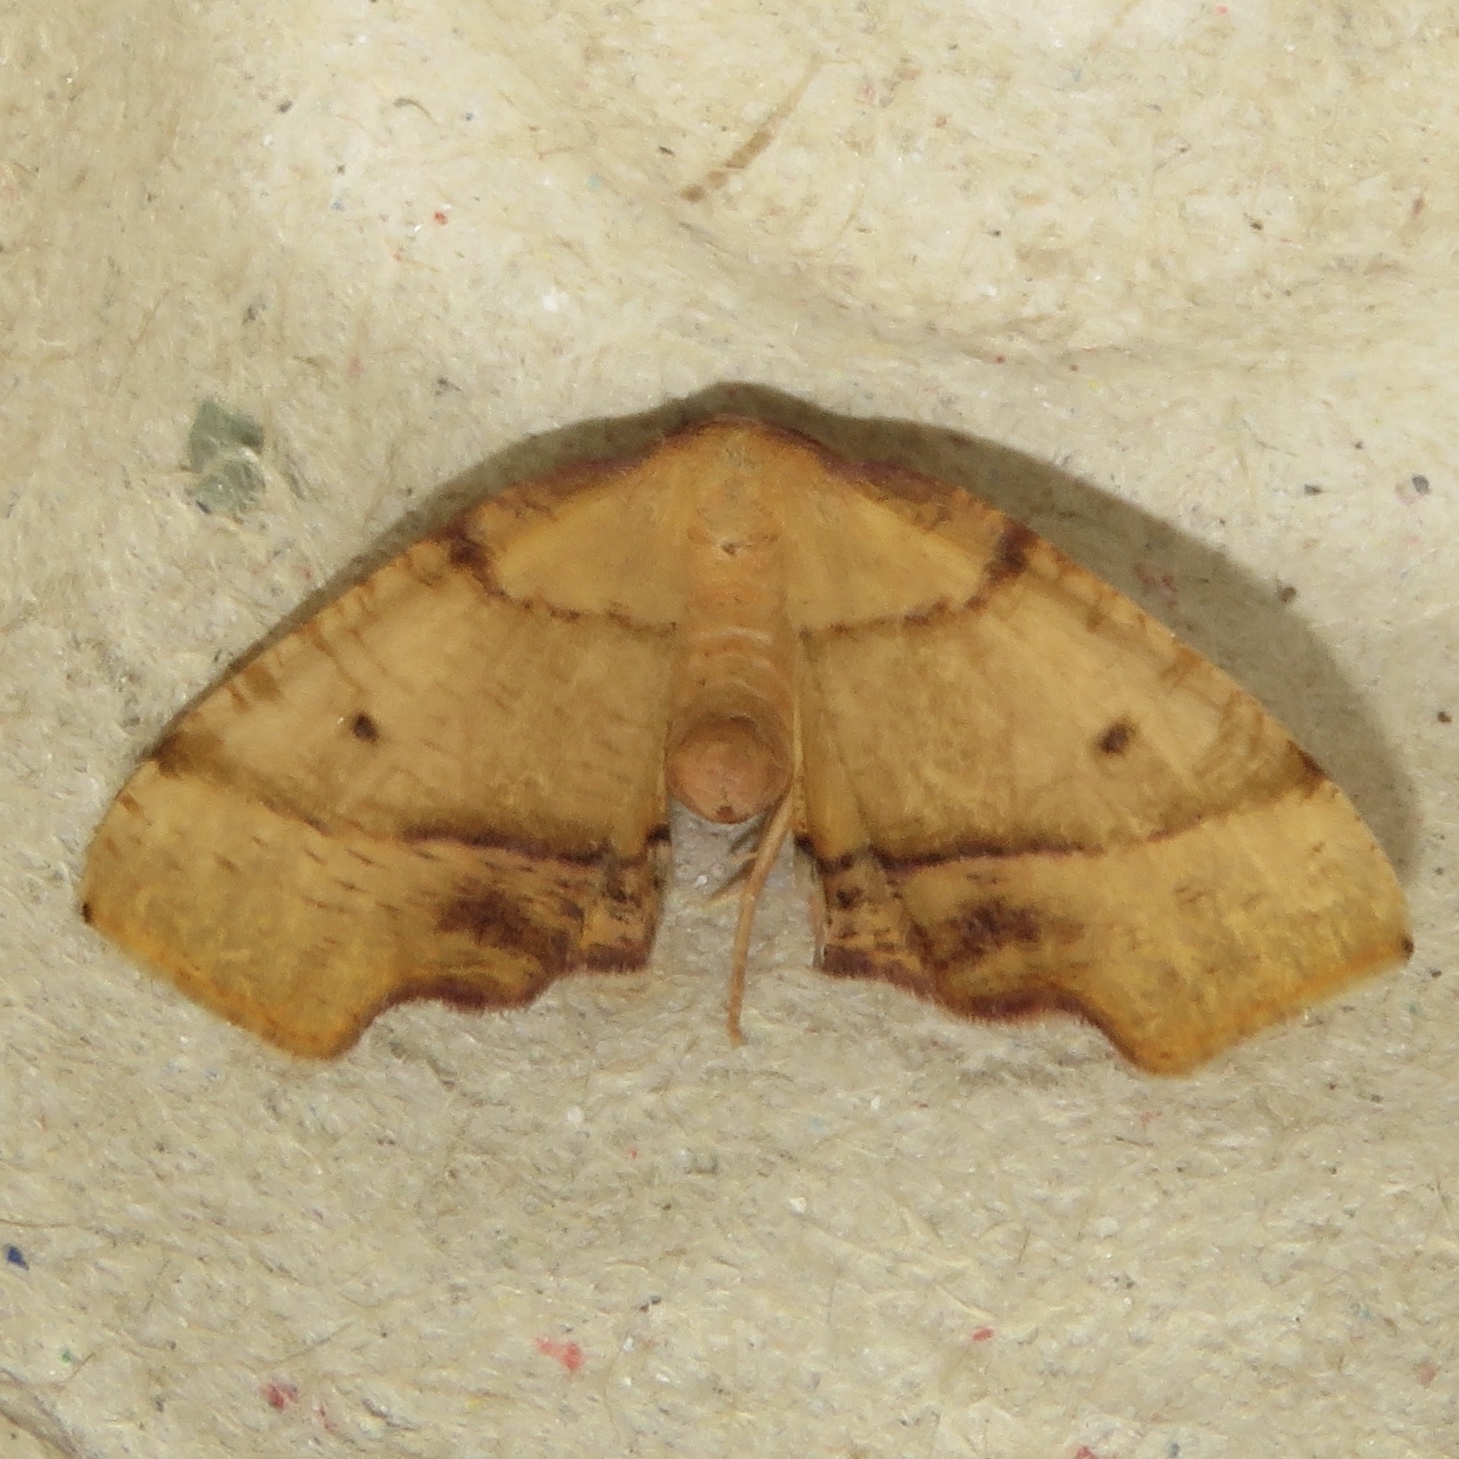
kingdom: Animalia
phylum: Arthropoda
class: Insecta
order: Lepidoptera
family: Geometridae
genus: Plagodis
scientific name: Plagodis phlogosaria
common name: Straight-lined plagodis
